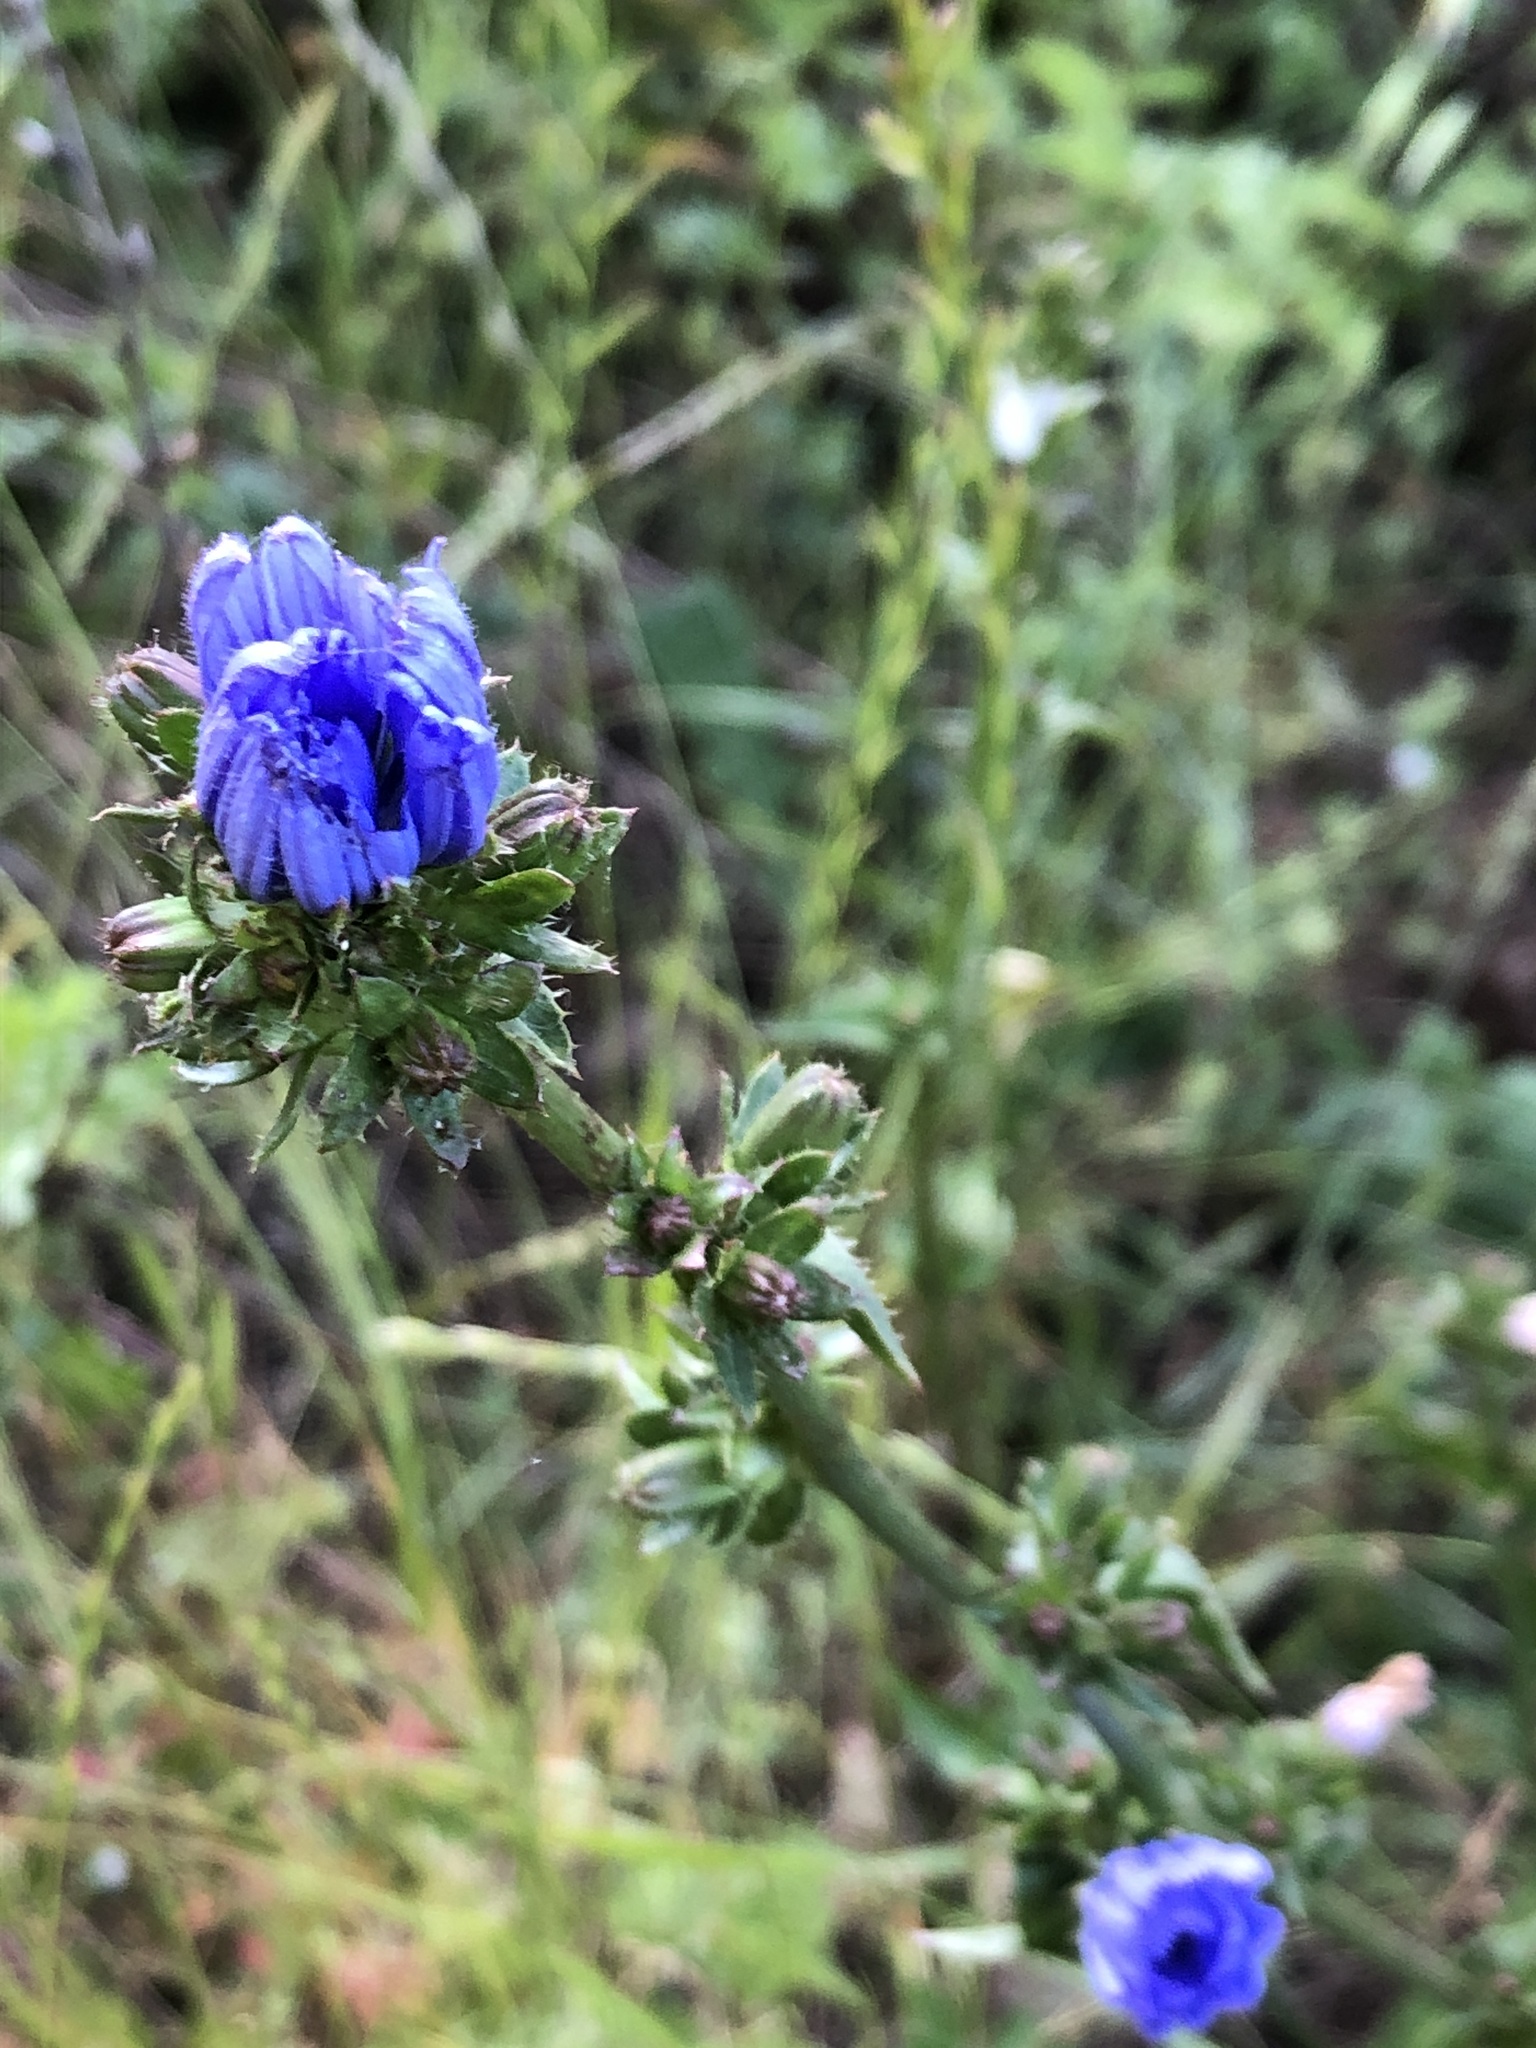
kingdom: Plantae
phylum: Tracheophyta
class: Magnoliopsida
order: Asterales
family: Asteraceae
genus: Cichorium
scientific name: Cichorium intybus
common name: Chicory
